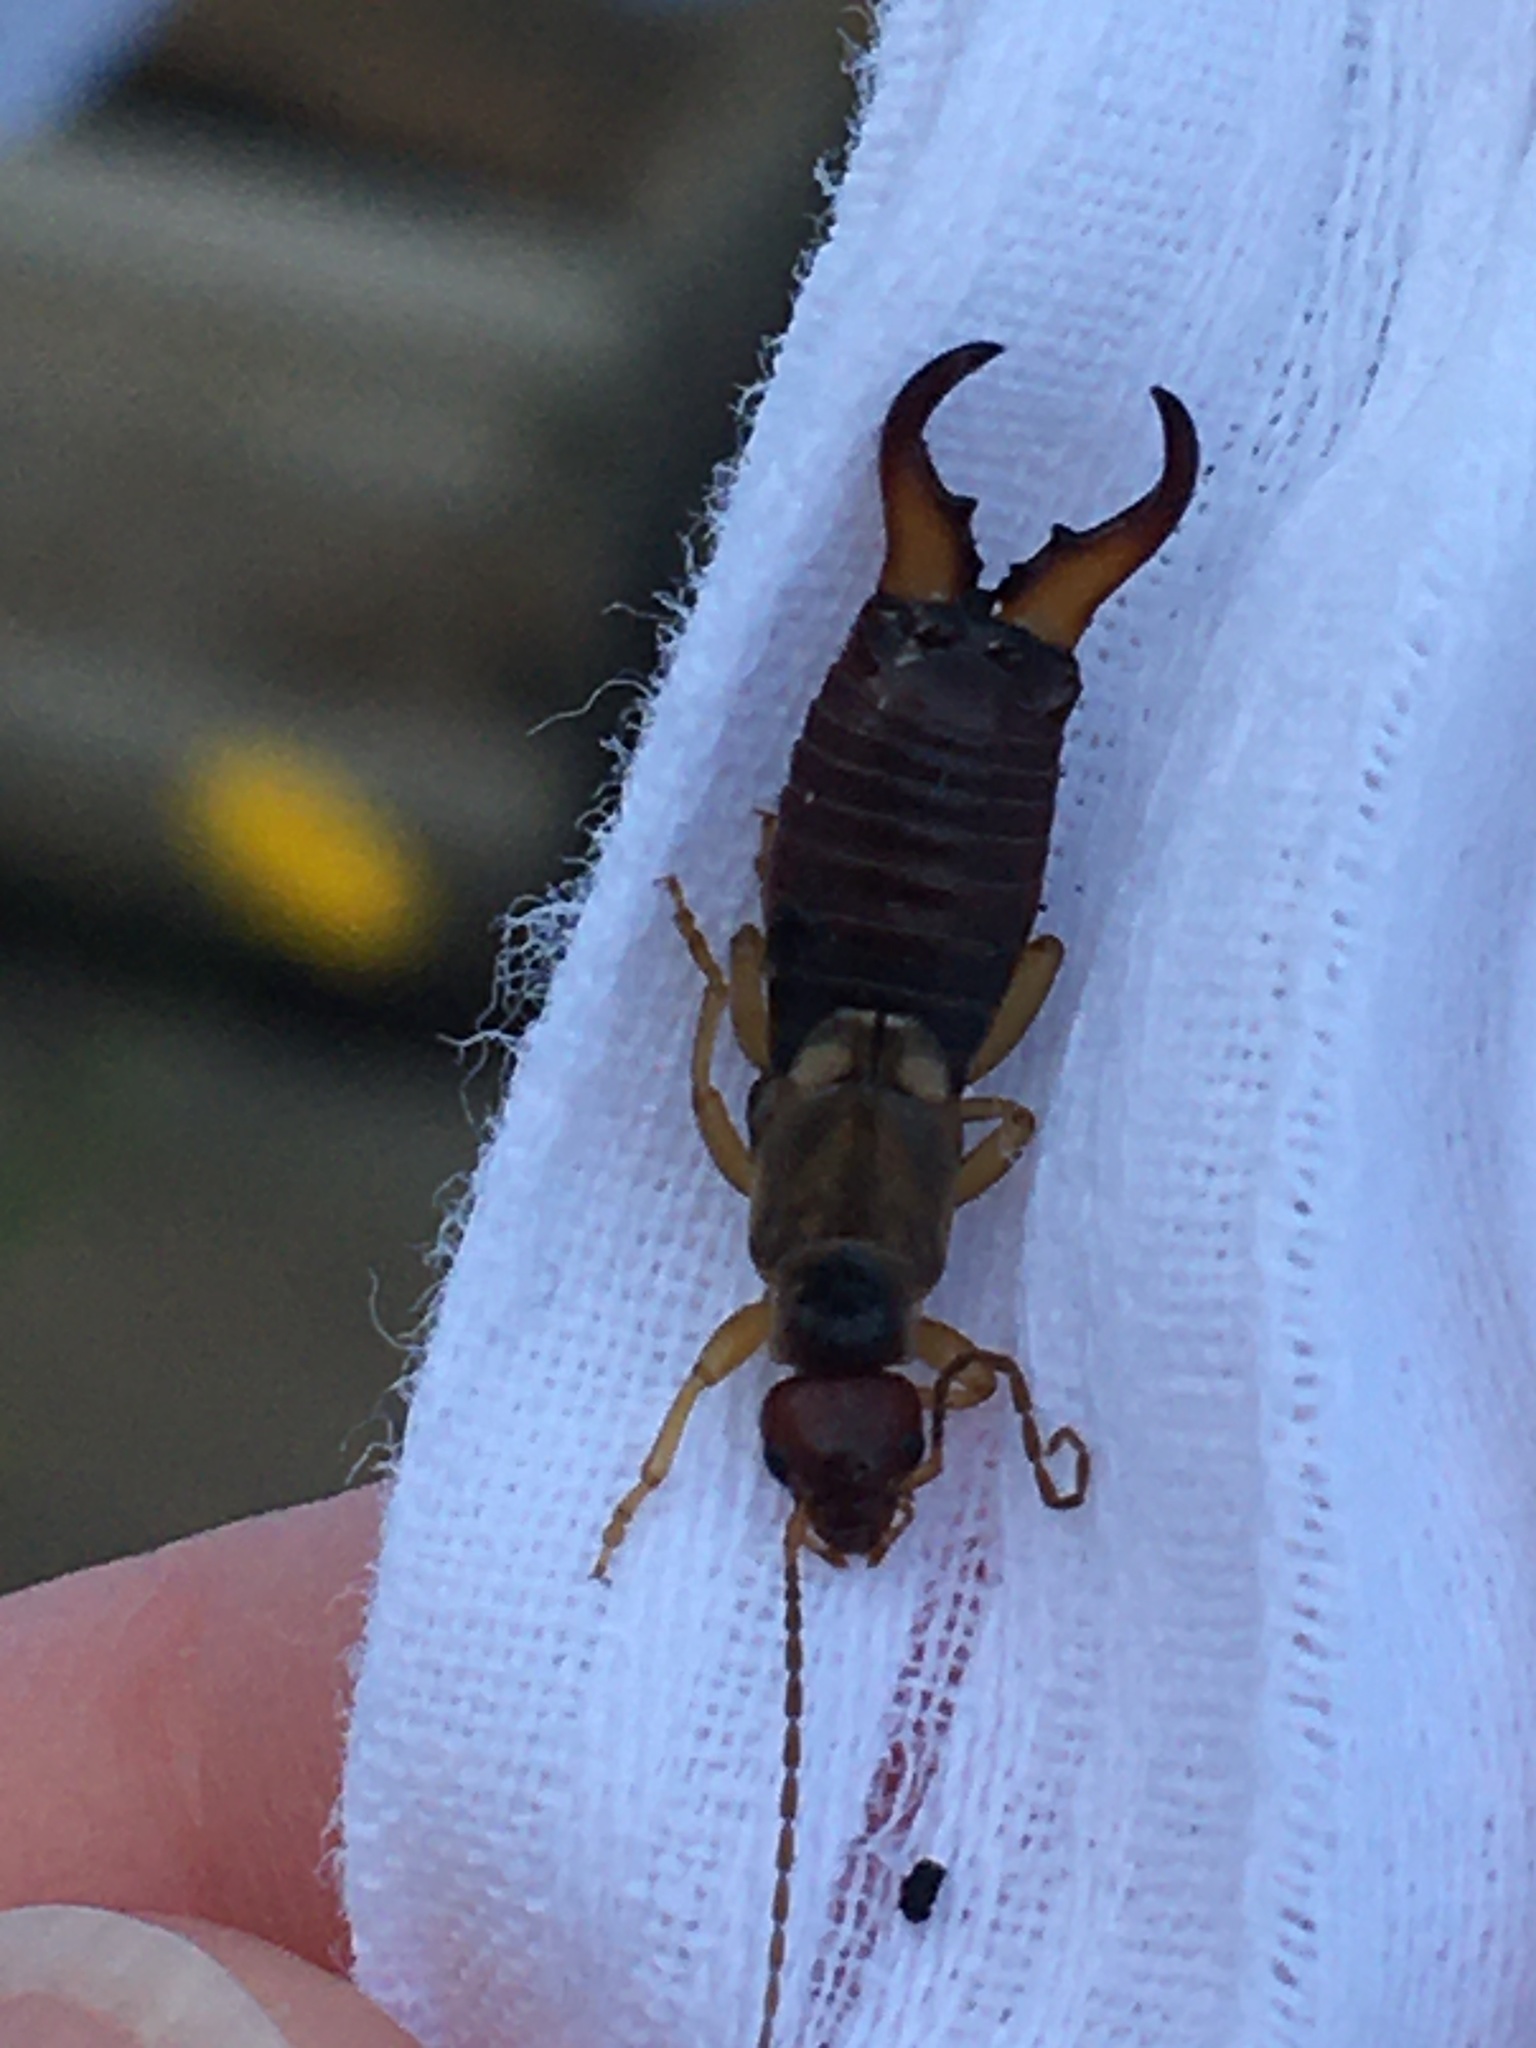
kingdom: Animalia
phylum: Arthropoda
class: Insecta
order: Dermaptera
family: Forficulidae
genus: Forficula
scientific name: Forficula
